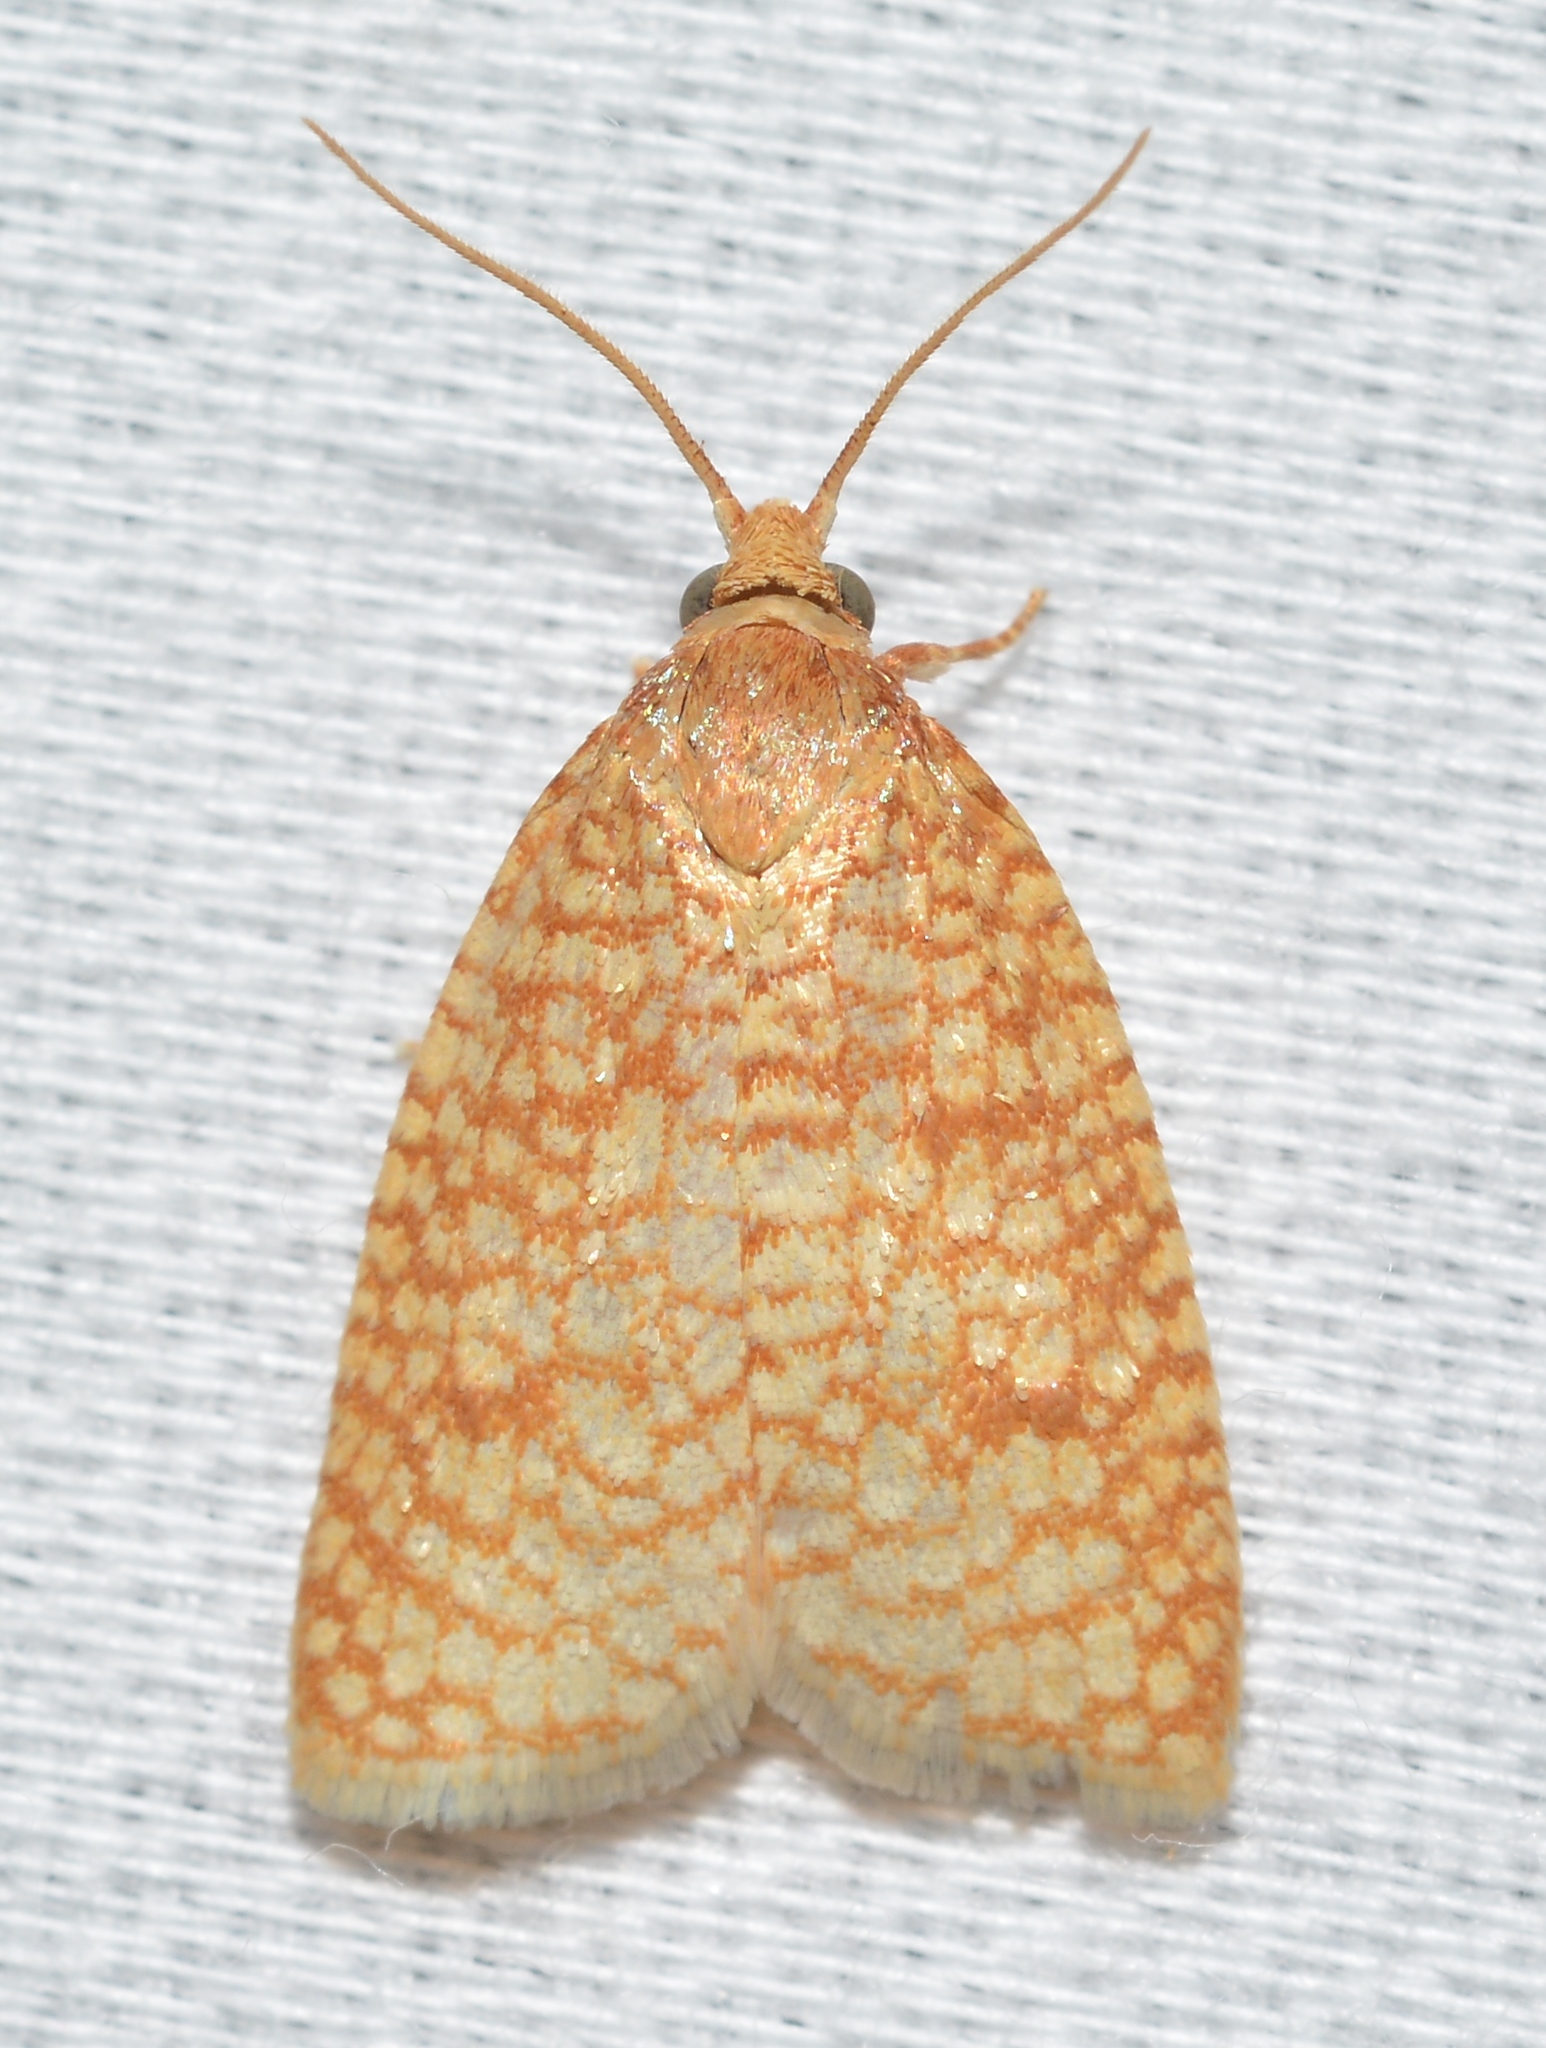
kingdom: Animalia
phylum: Arthropoda
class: Insecta
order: Lepidoptera
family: Tortricidae
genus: Sparganothis
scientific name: Sparganothis caryae
